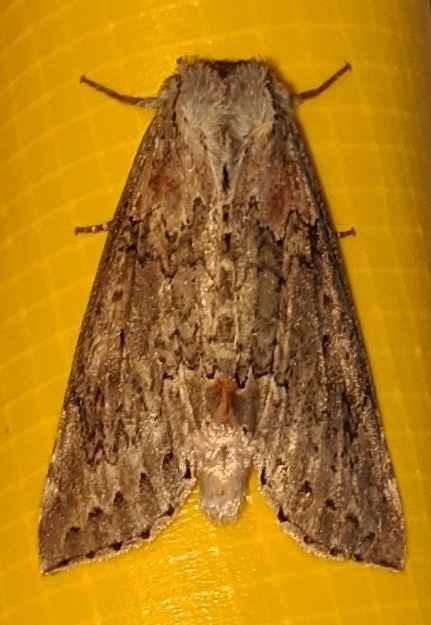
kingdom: Animalia
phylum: Arthropoda
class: Insecta
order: Lepidoptera
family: Drepanidae
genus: Pseudothyatira
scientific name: Pseudothyatira cymatophoroides
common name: Tufted thyatirid moth
